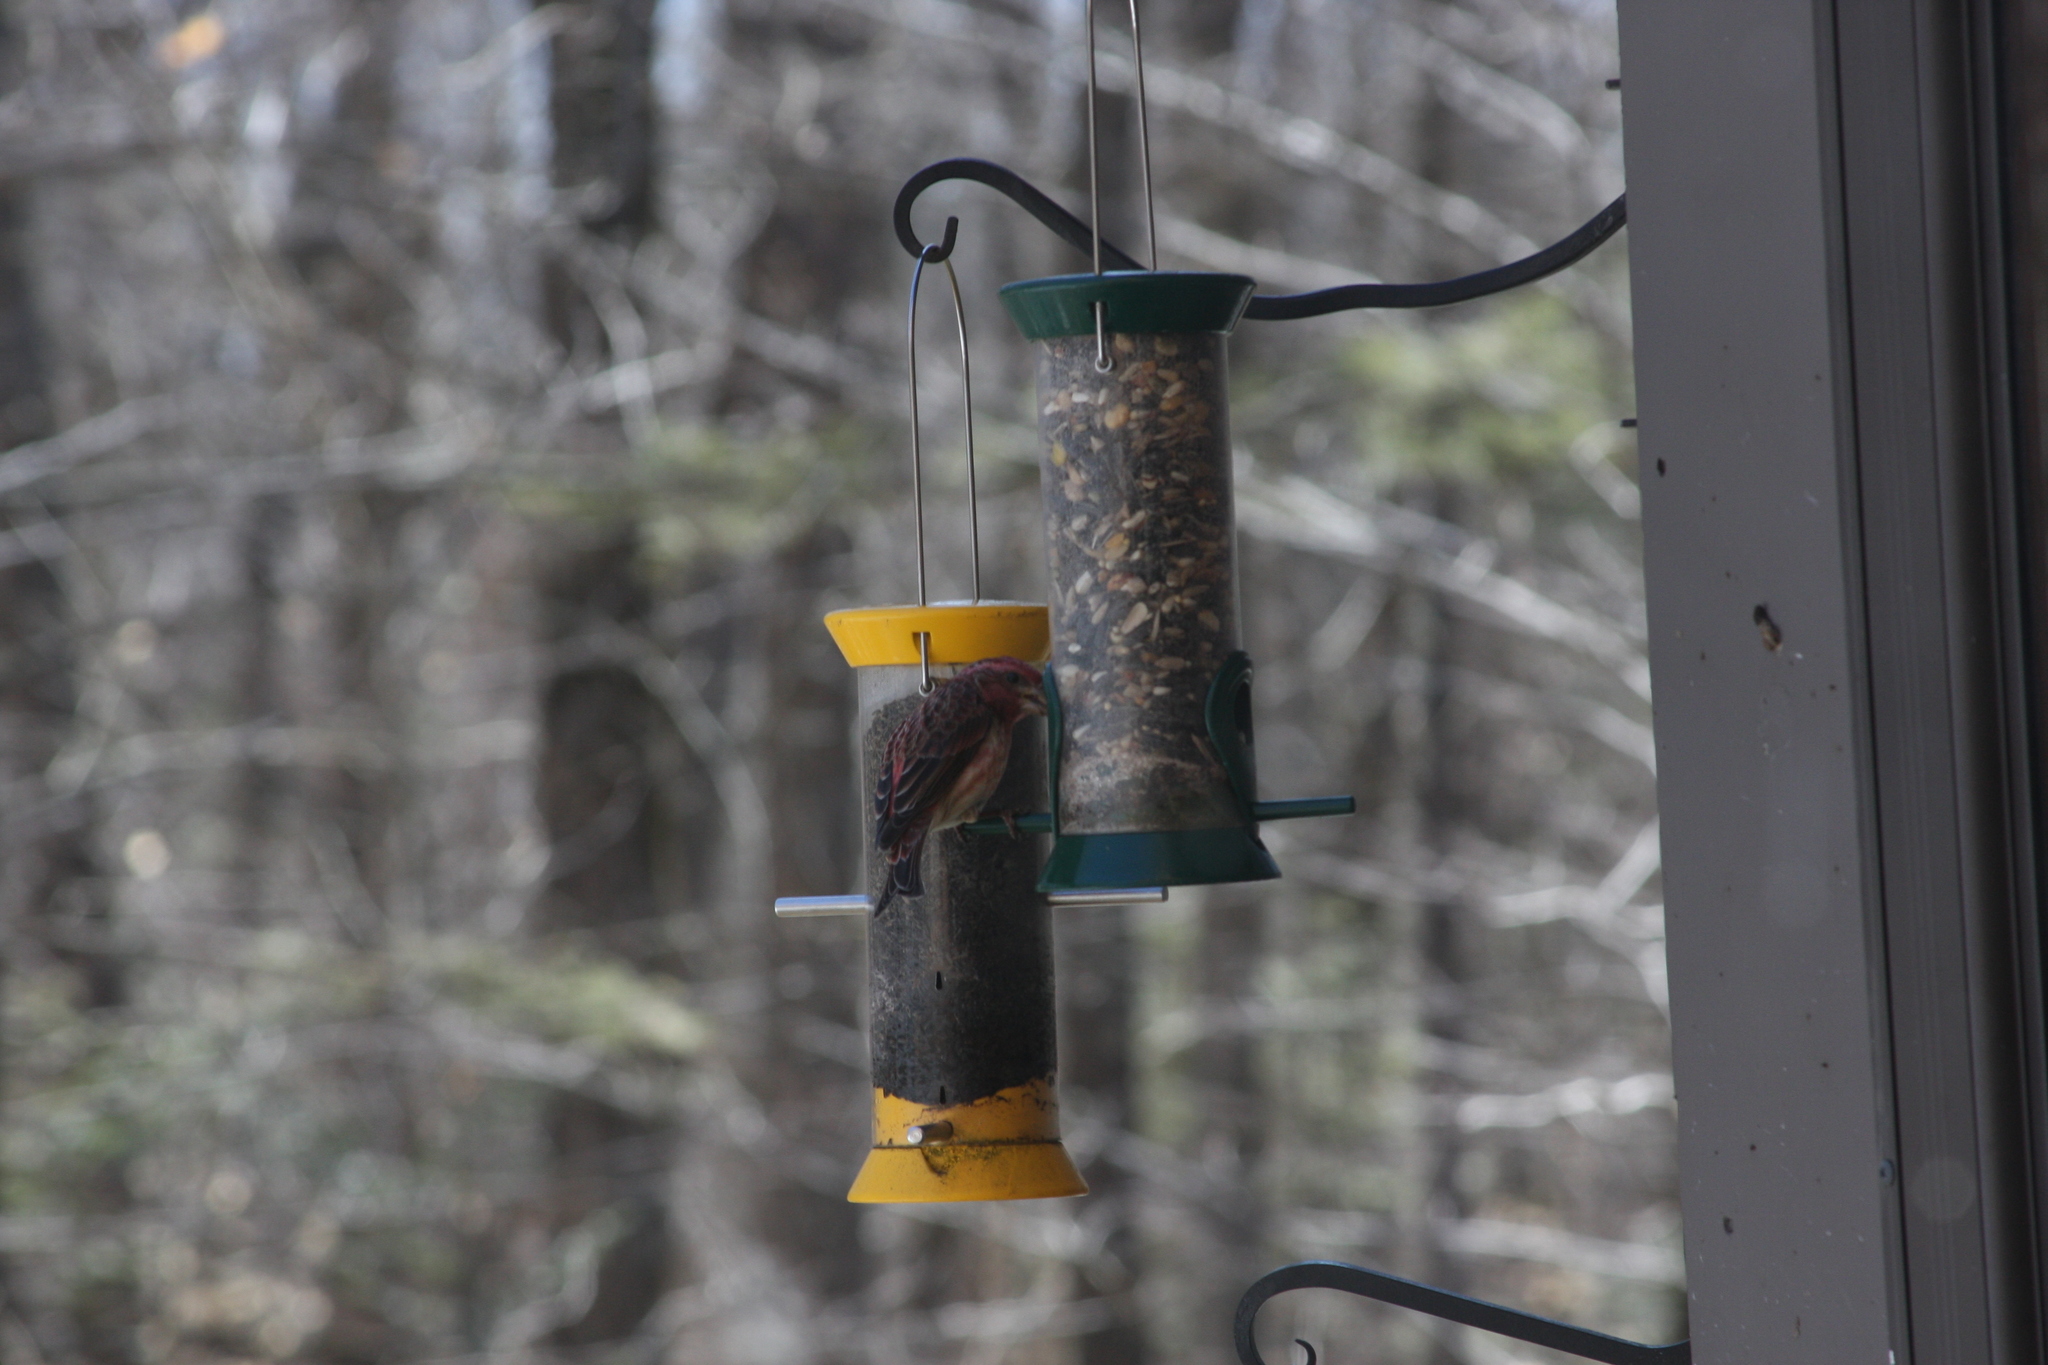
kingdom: Animalia
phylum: Chordata
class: Aves
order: Passeriformes
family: Fringillidae
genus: Haemorhous
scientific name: Haemorhous purpureus
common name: Purple finch
